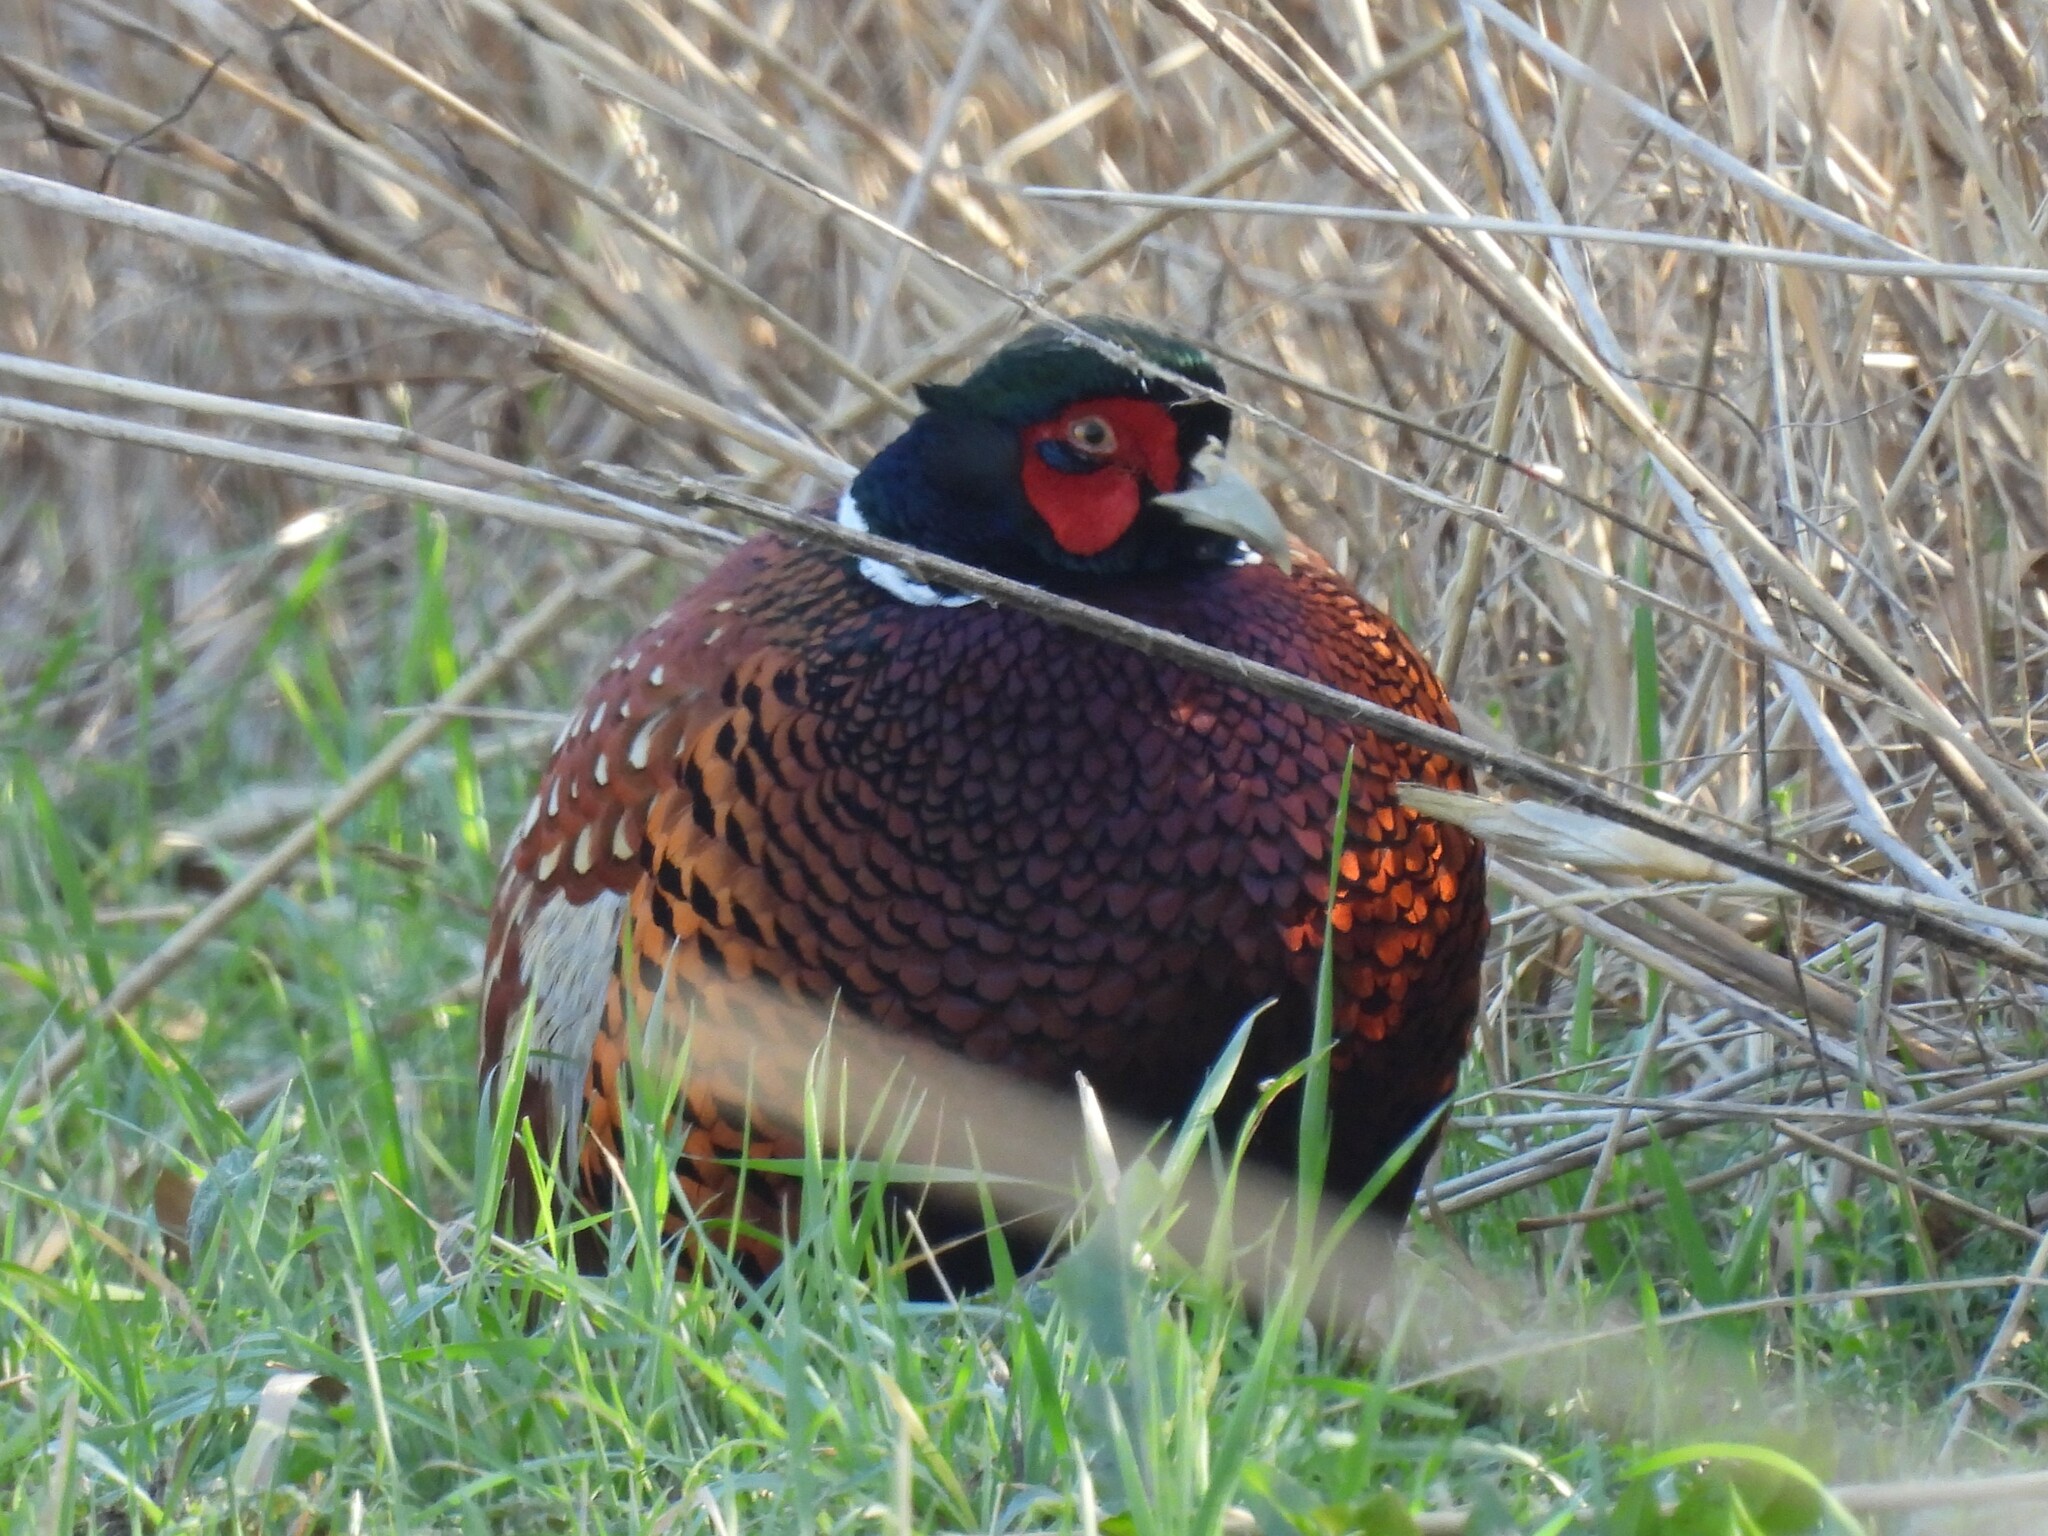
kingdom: Animalia
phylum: Chordata
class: Aves
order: Galliformes
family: Phasianidae
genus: Phasianus
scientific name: Phasianus colchicus
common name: Common pheasant
